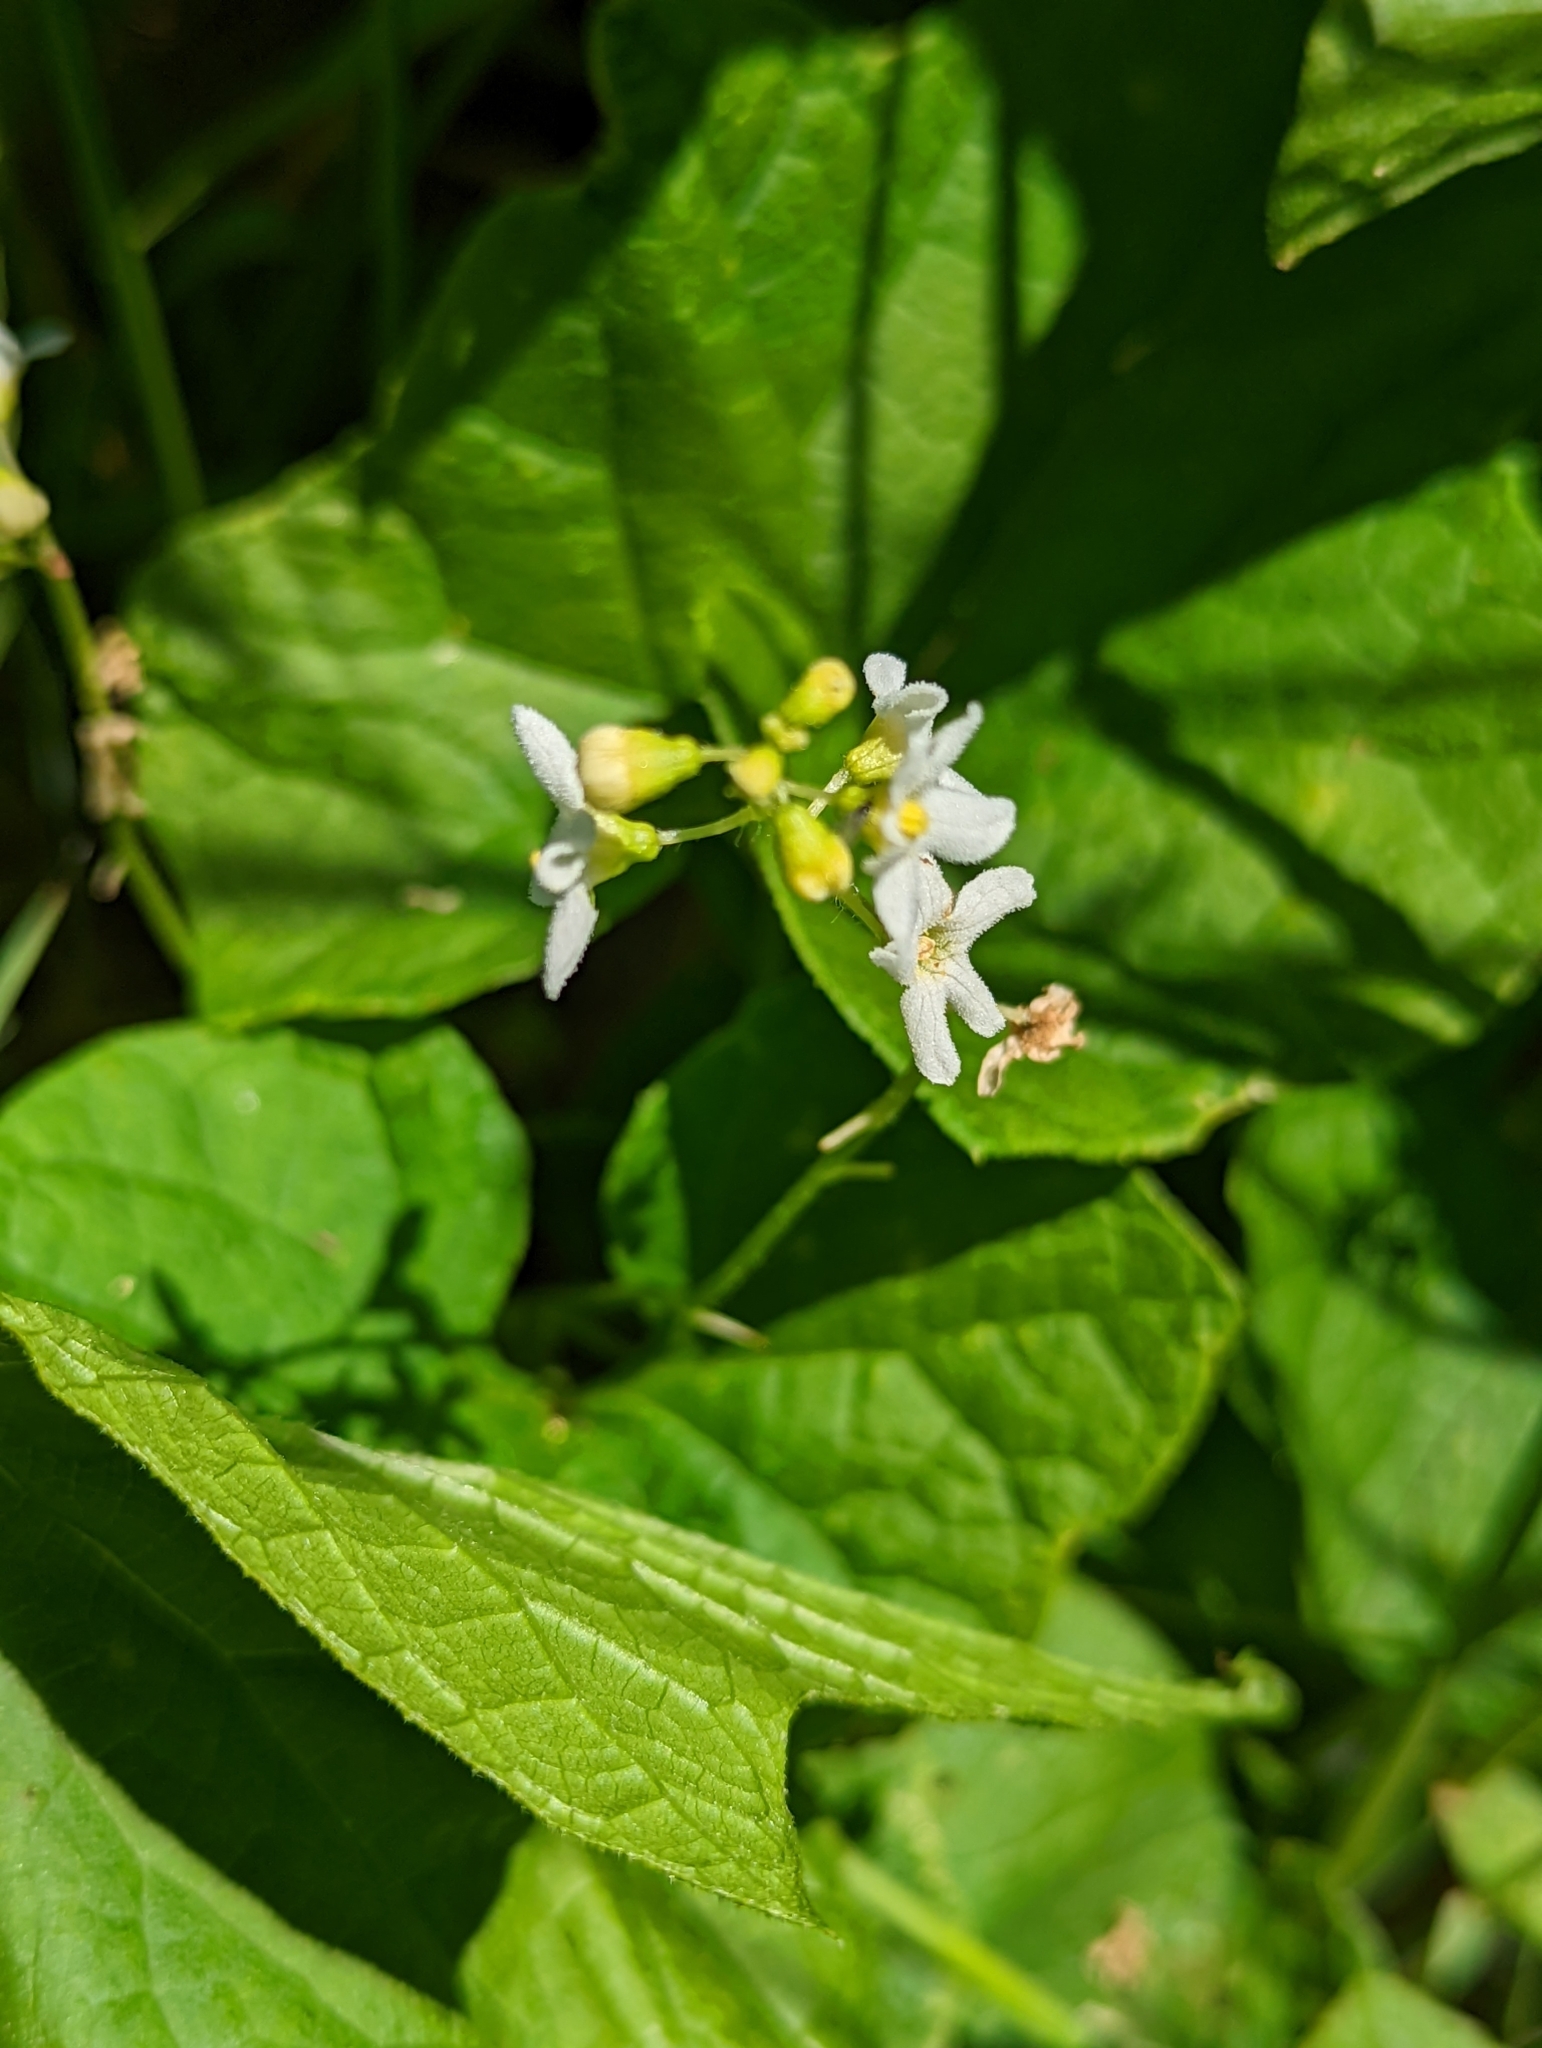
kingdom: Plantae
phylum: Tracheophyta
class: Magnoliopsida
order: Cucurbitales
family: Cucurbitaceae
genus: Marah
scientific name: Marah oregana
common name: Coastal manroot
